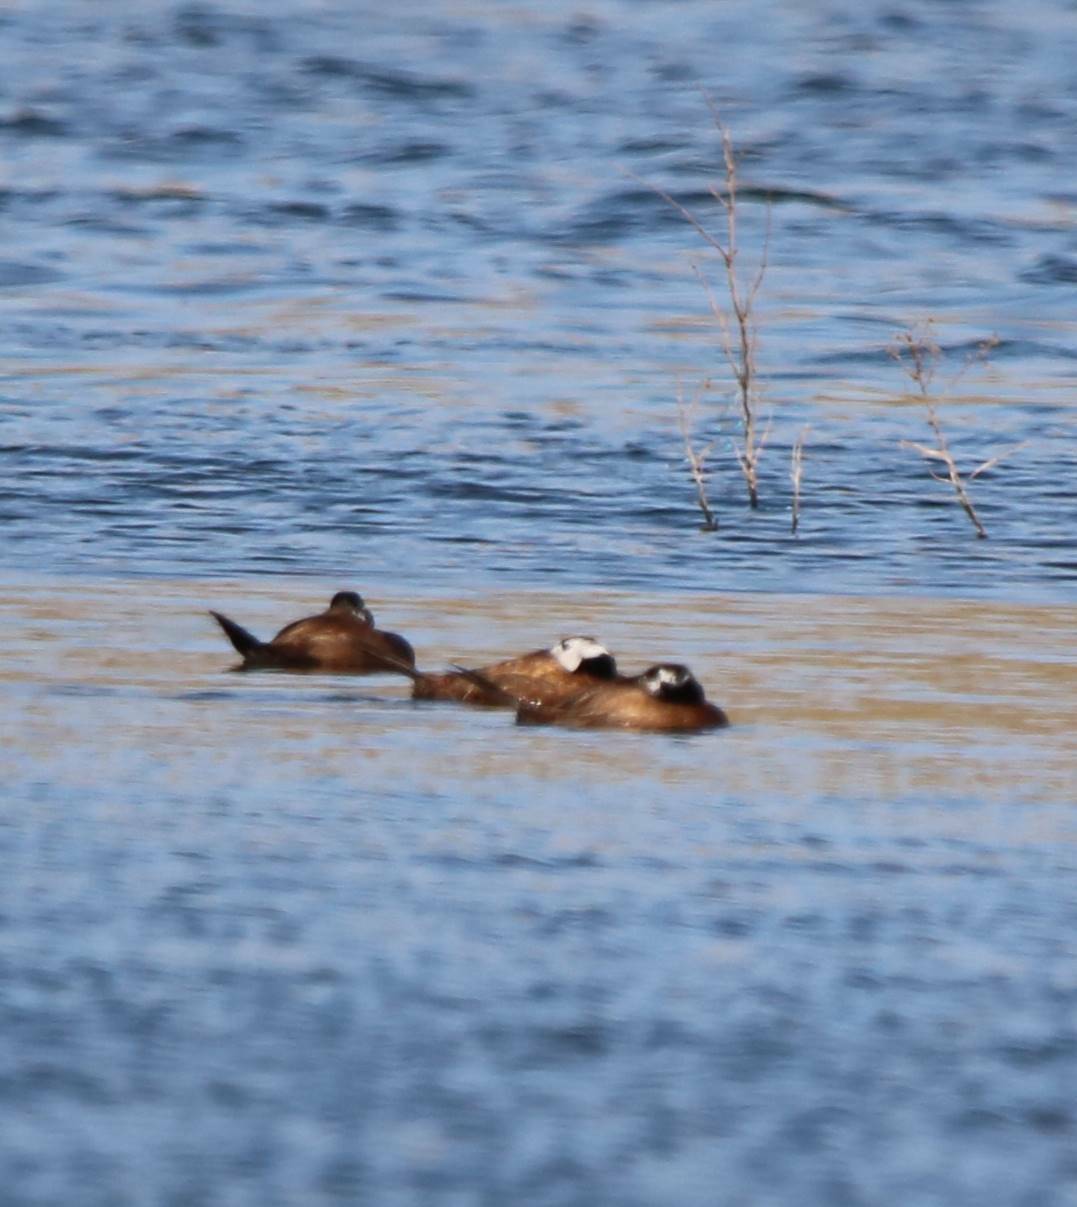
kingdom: Animalia
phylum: Chordata
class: Aves
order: Anseriformes
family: Anatidae
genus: Oxyura
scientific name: Oxyura leucocephala
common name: White-headed duck
